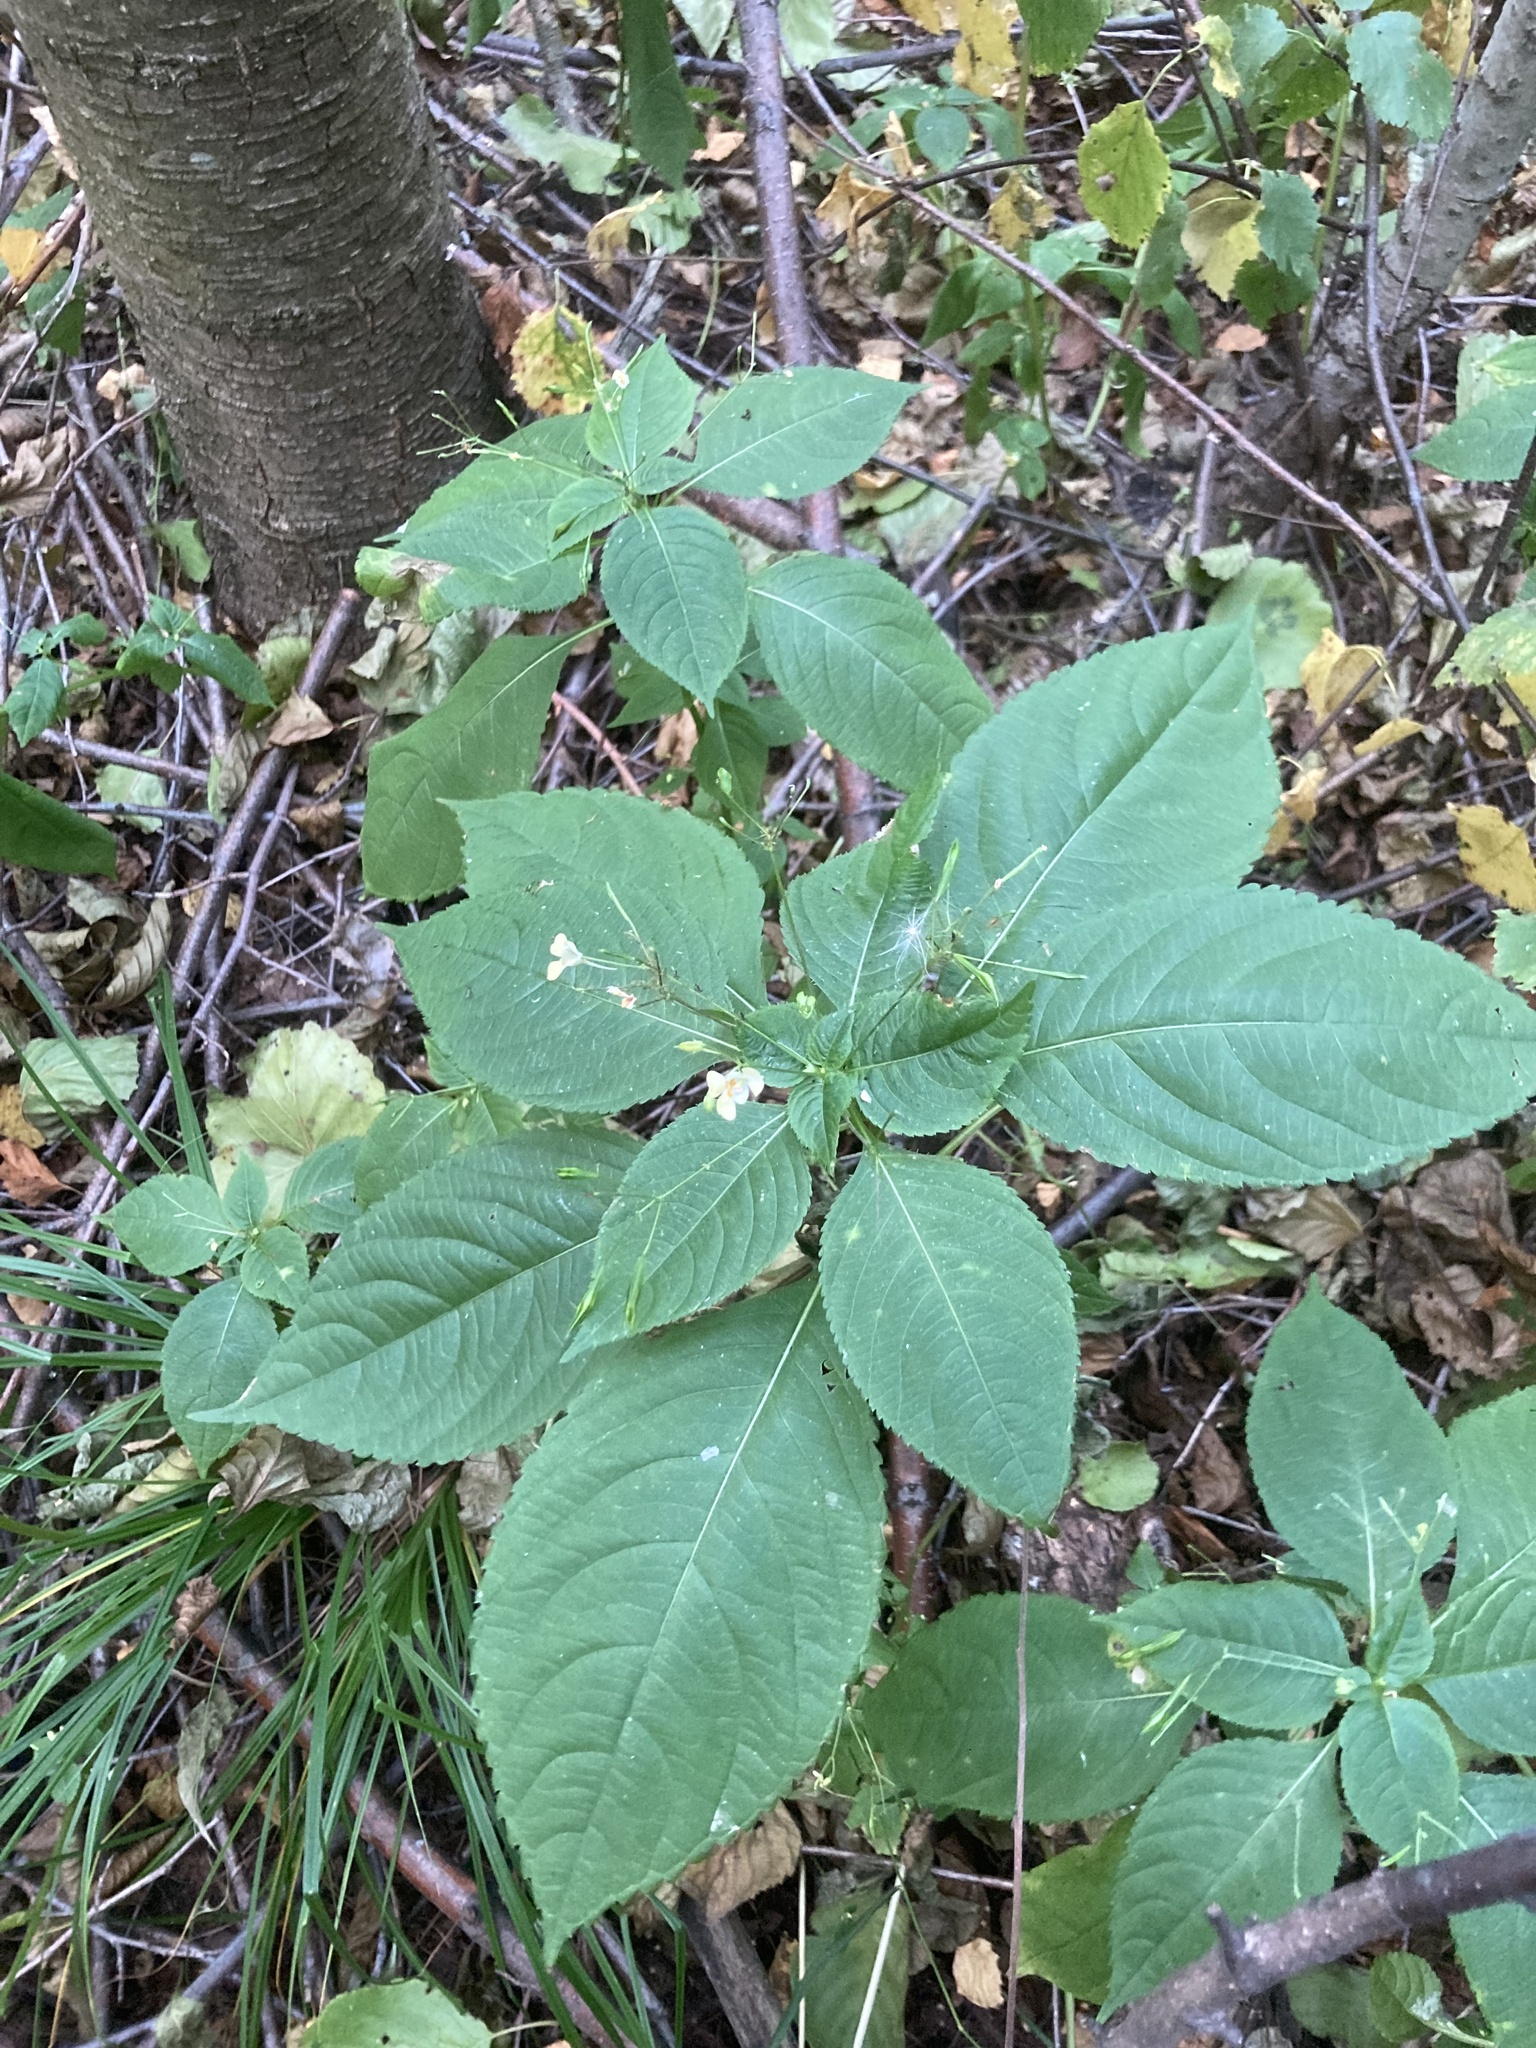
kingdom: Plantae
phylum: Tracheophyta
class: Magnoliopsida
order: Ericales
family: Balsaminaceae
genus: Impatiens
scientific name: Impatiens parviflora
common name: Small balsam
